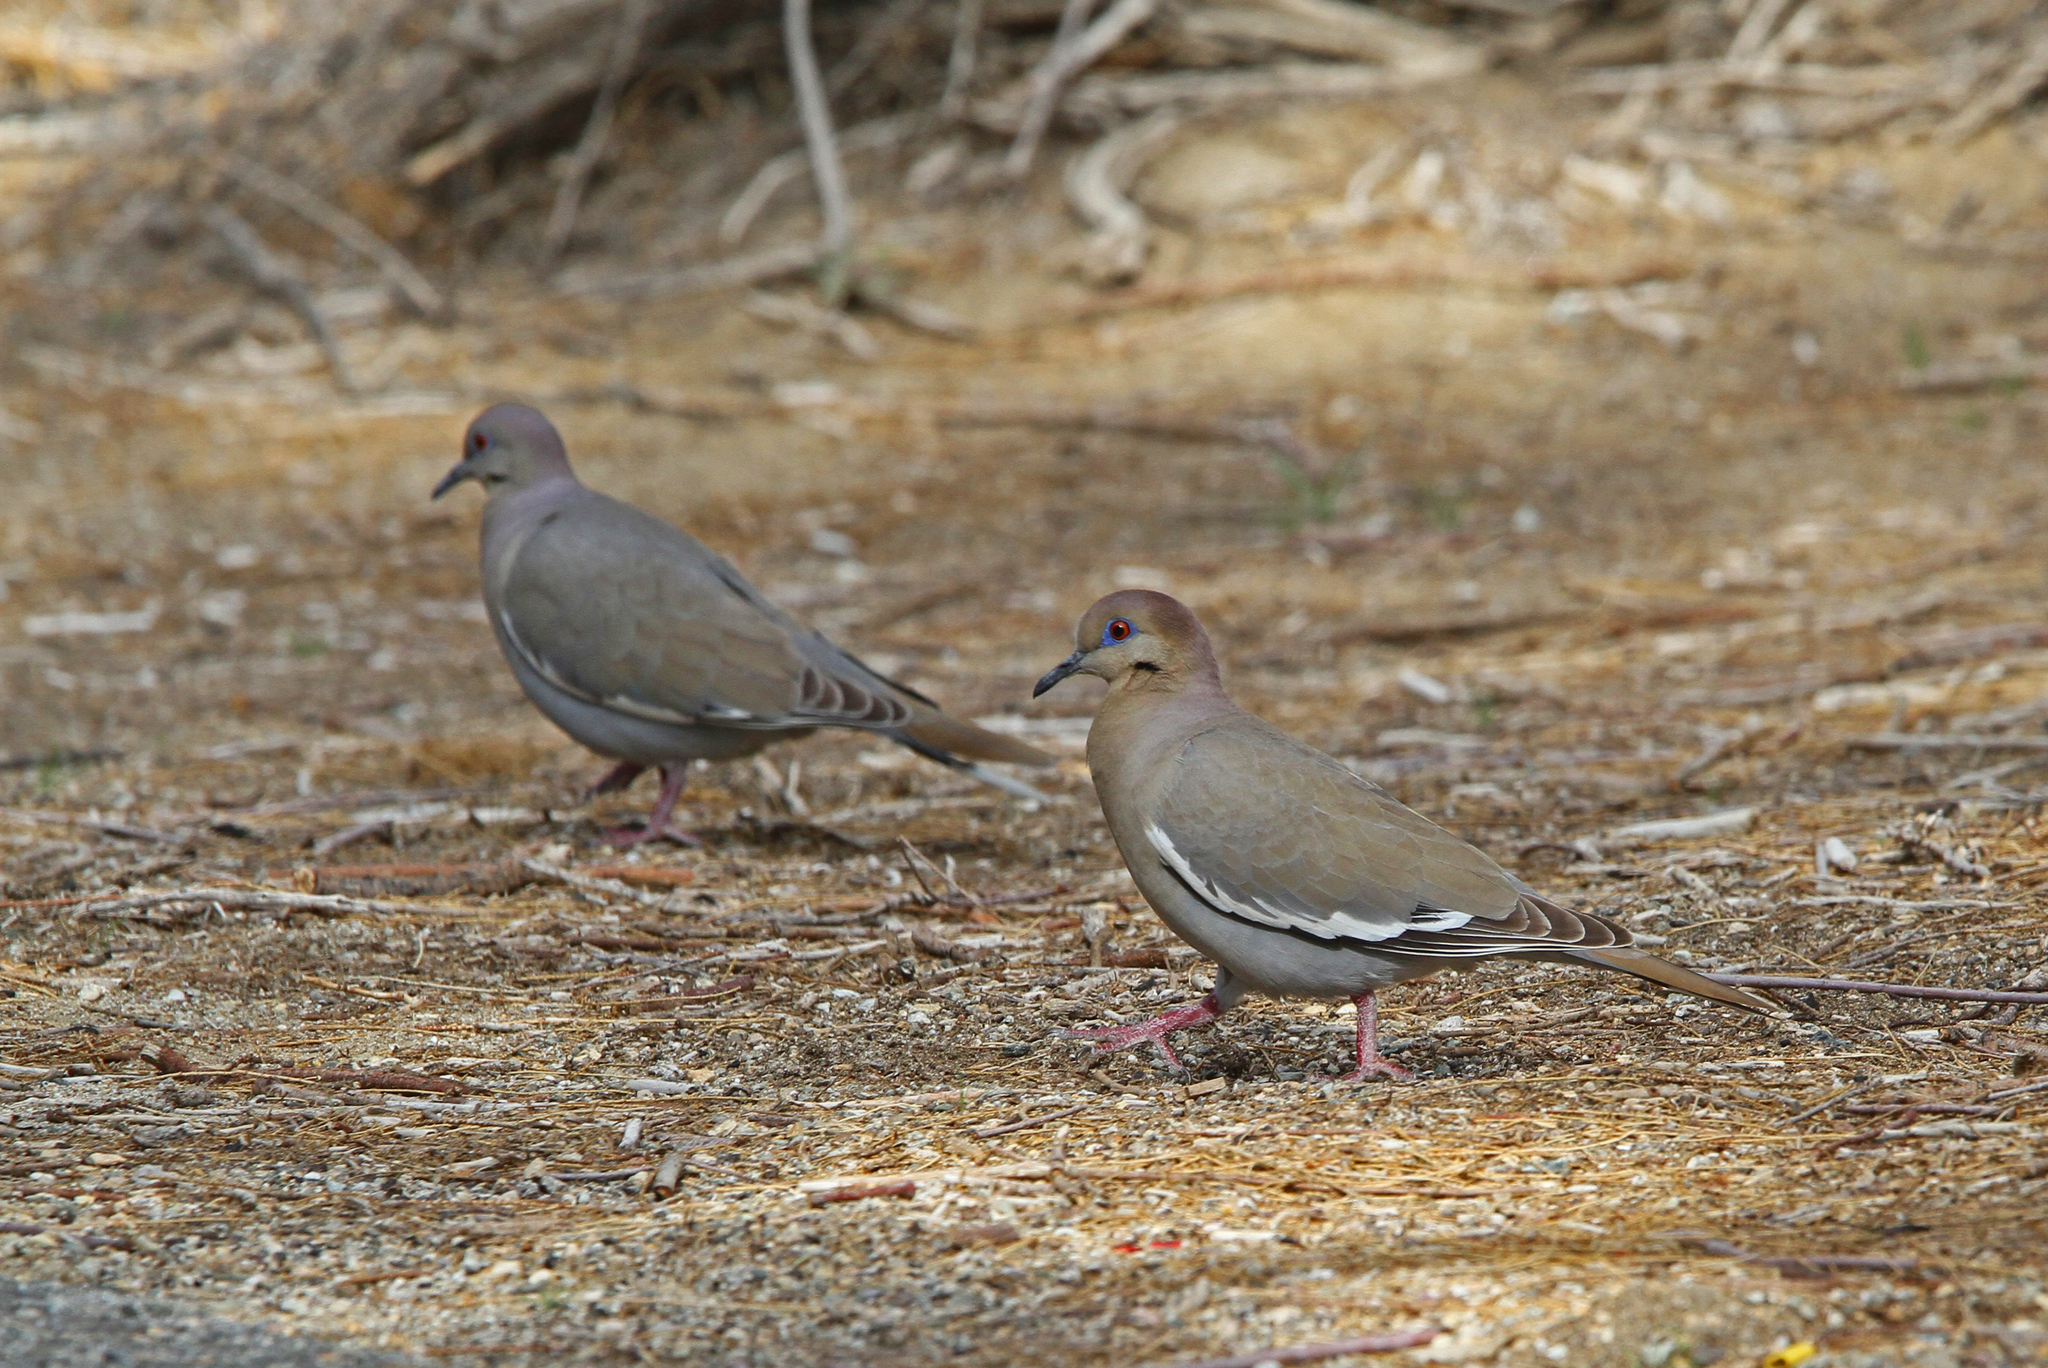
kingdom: Animalia
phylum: Chordata
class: Aves
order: Columbiformes
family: Columbidae
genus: Zenaida
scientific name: Zenaida asiatica
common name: White-winged dove
